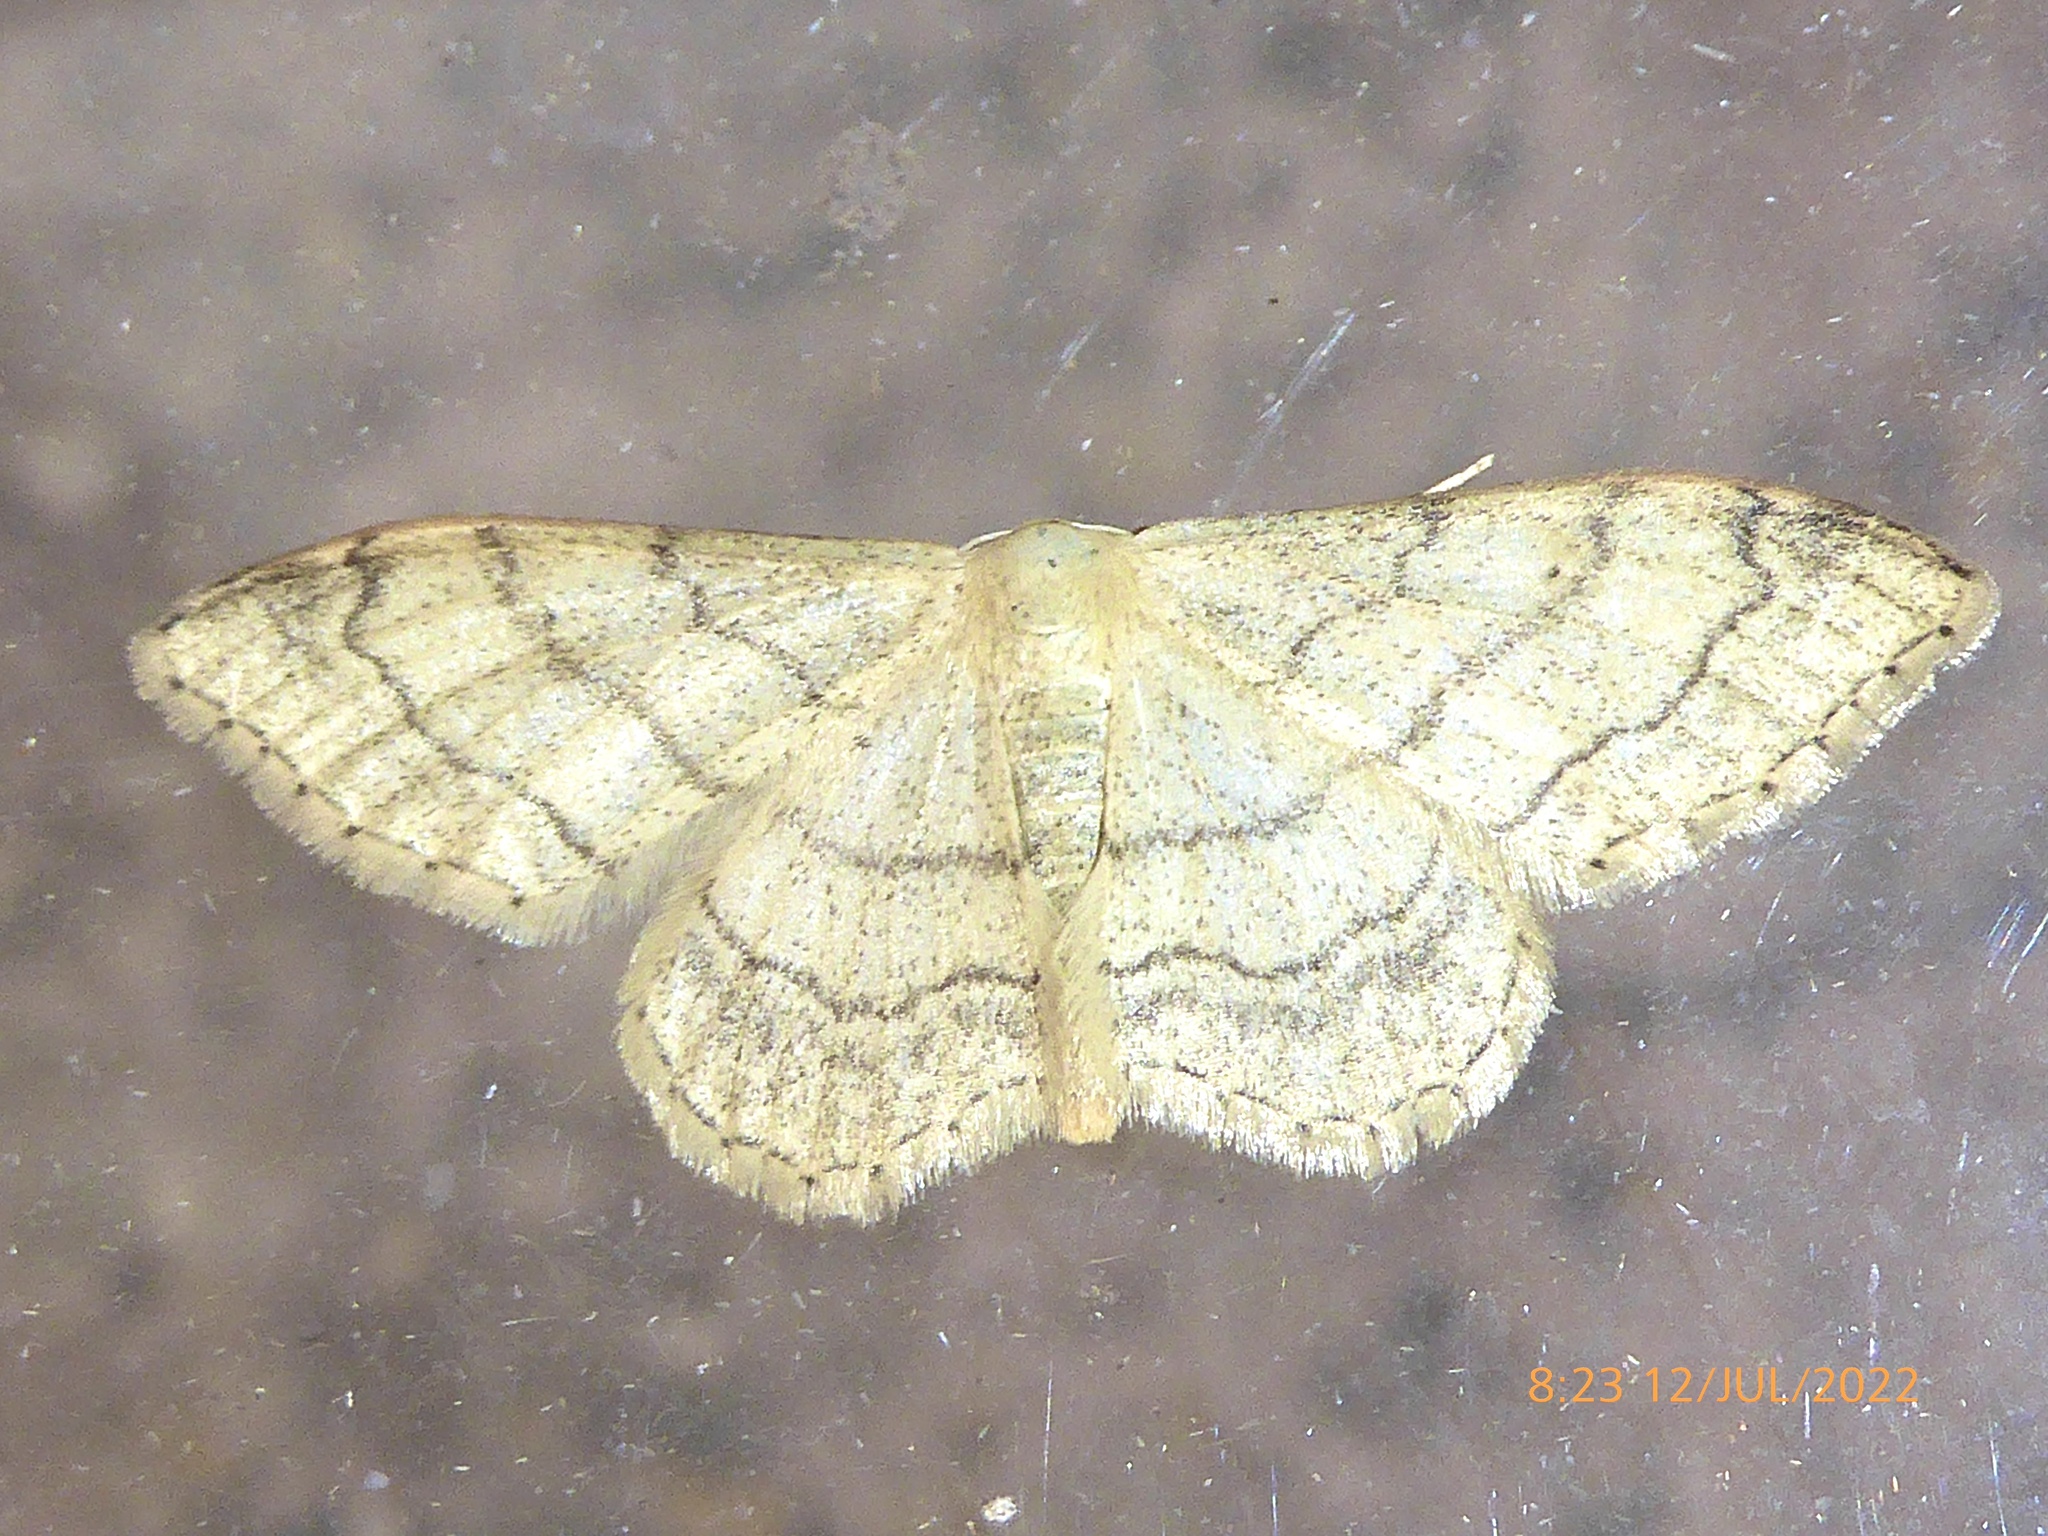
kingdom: Animalia
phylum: Arthropoda
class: Insecta
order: Lepidoptera
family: Geometridae
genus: Idaea
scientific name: Idaea aversata
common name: Riband wave
